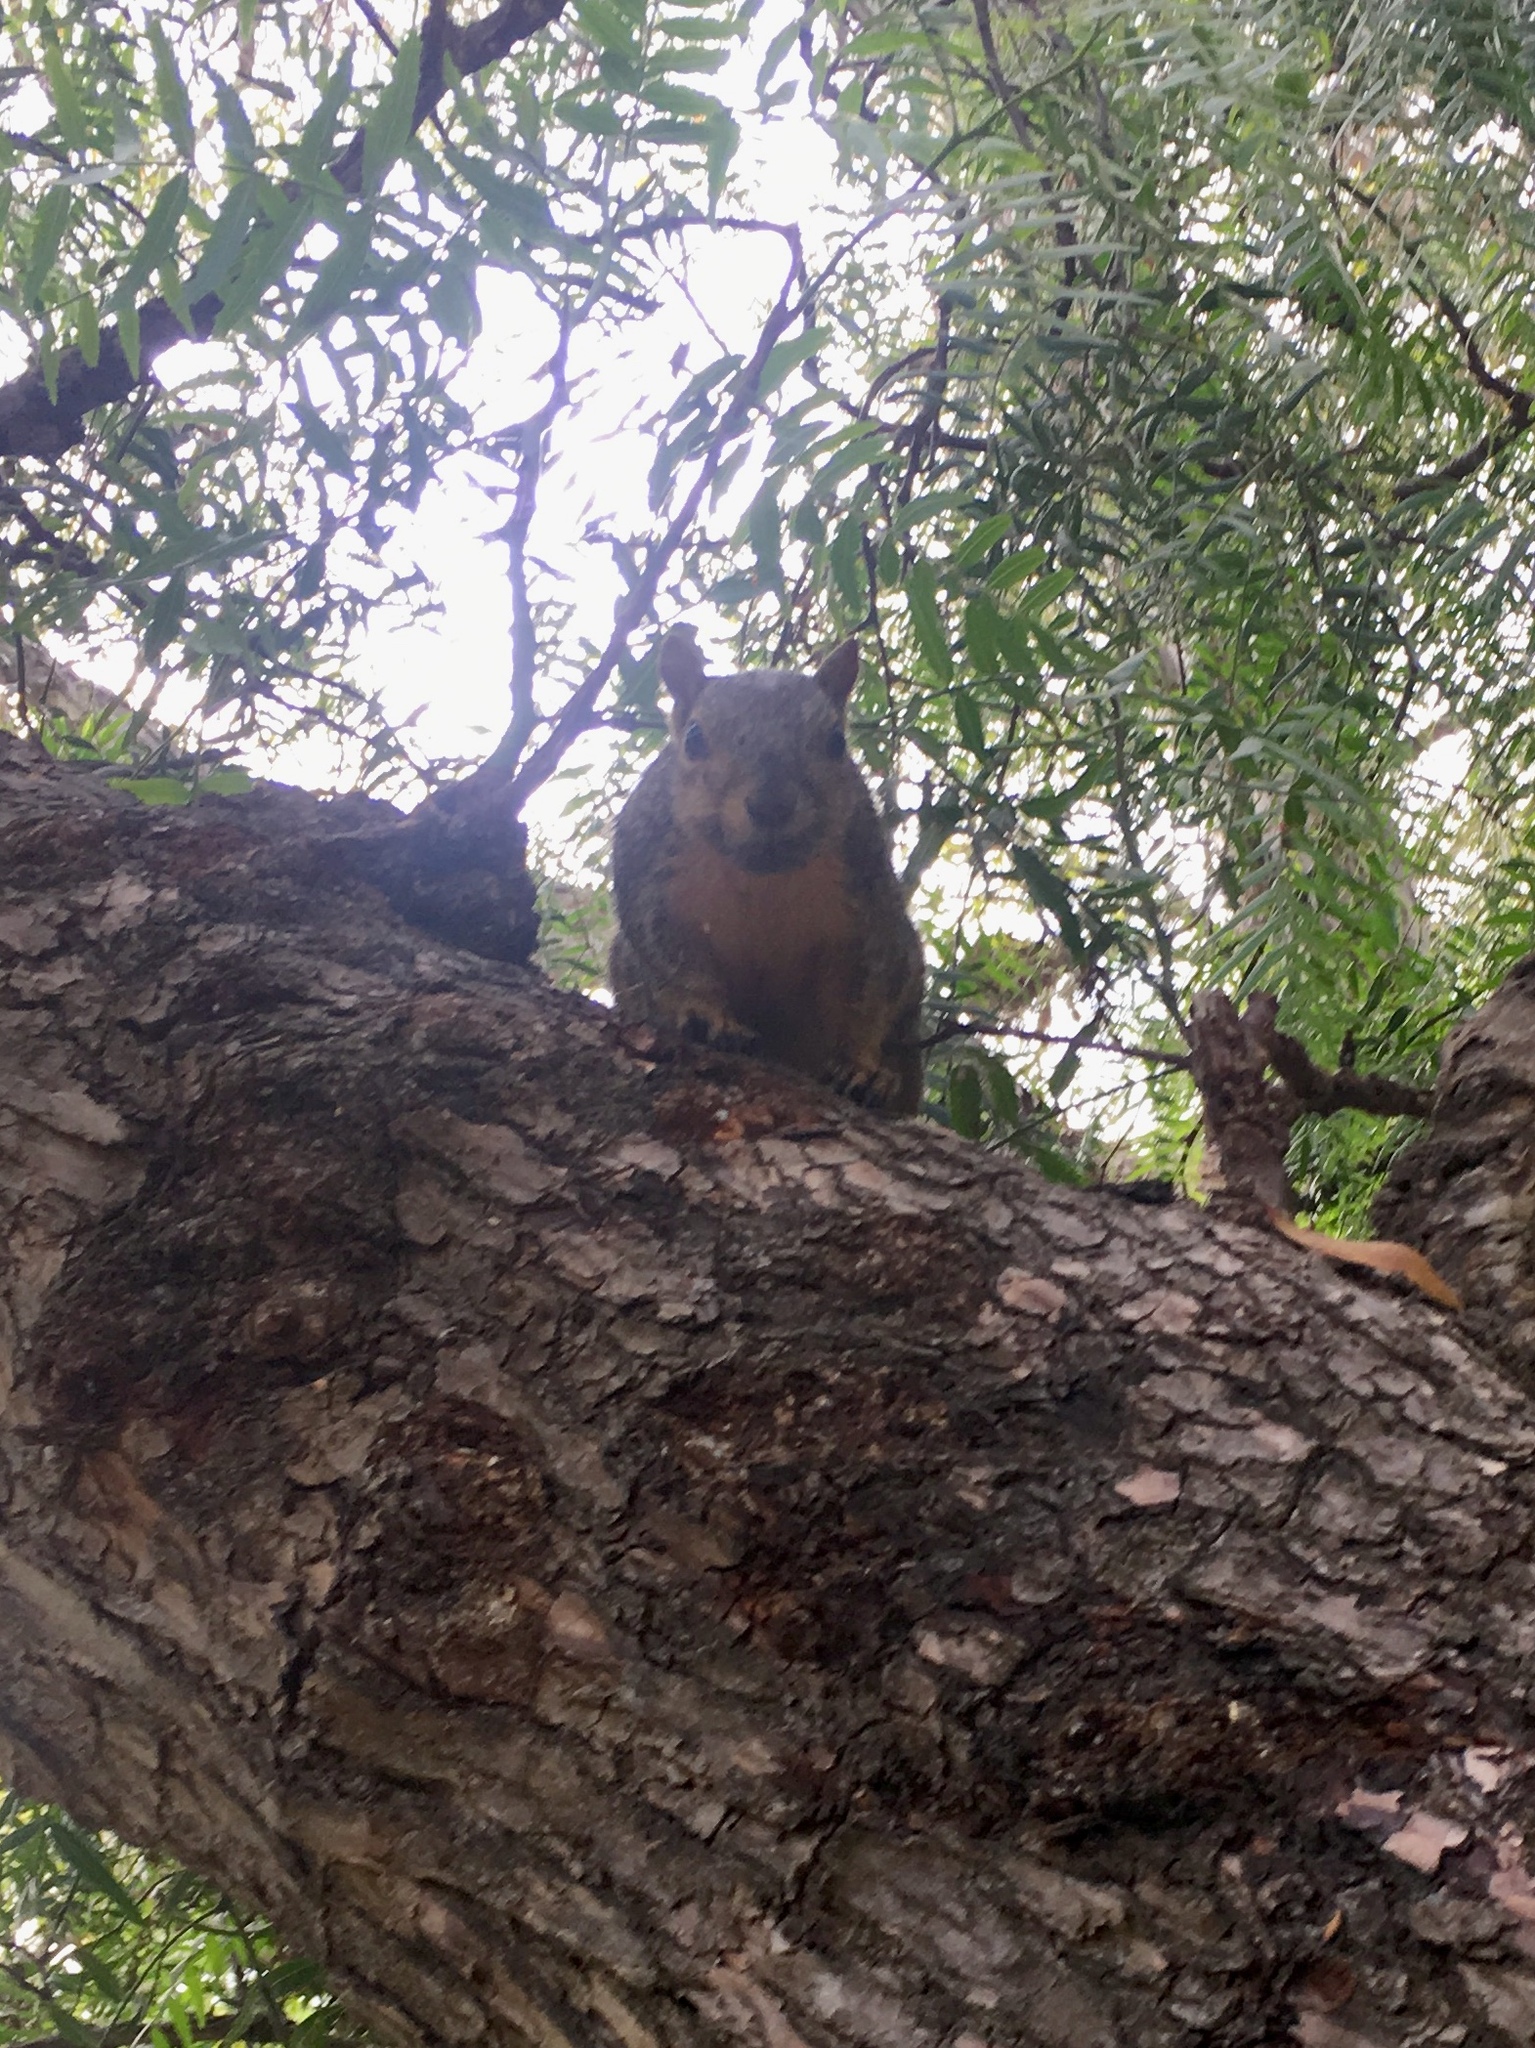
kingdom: Animalia
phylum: Chordata
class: Mammalia
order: Rodentia
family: Sciuridae
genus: Sciurus
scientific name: Sciurus niger
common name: Fox squirrel
